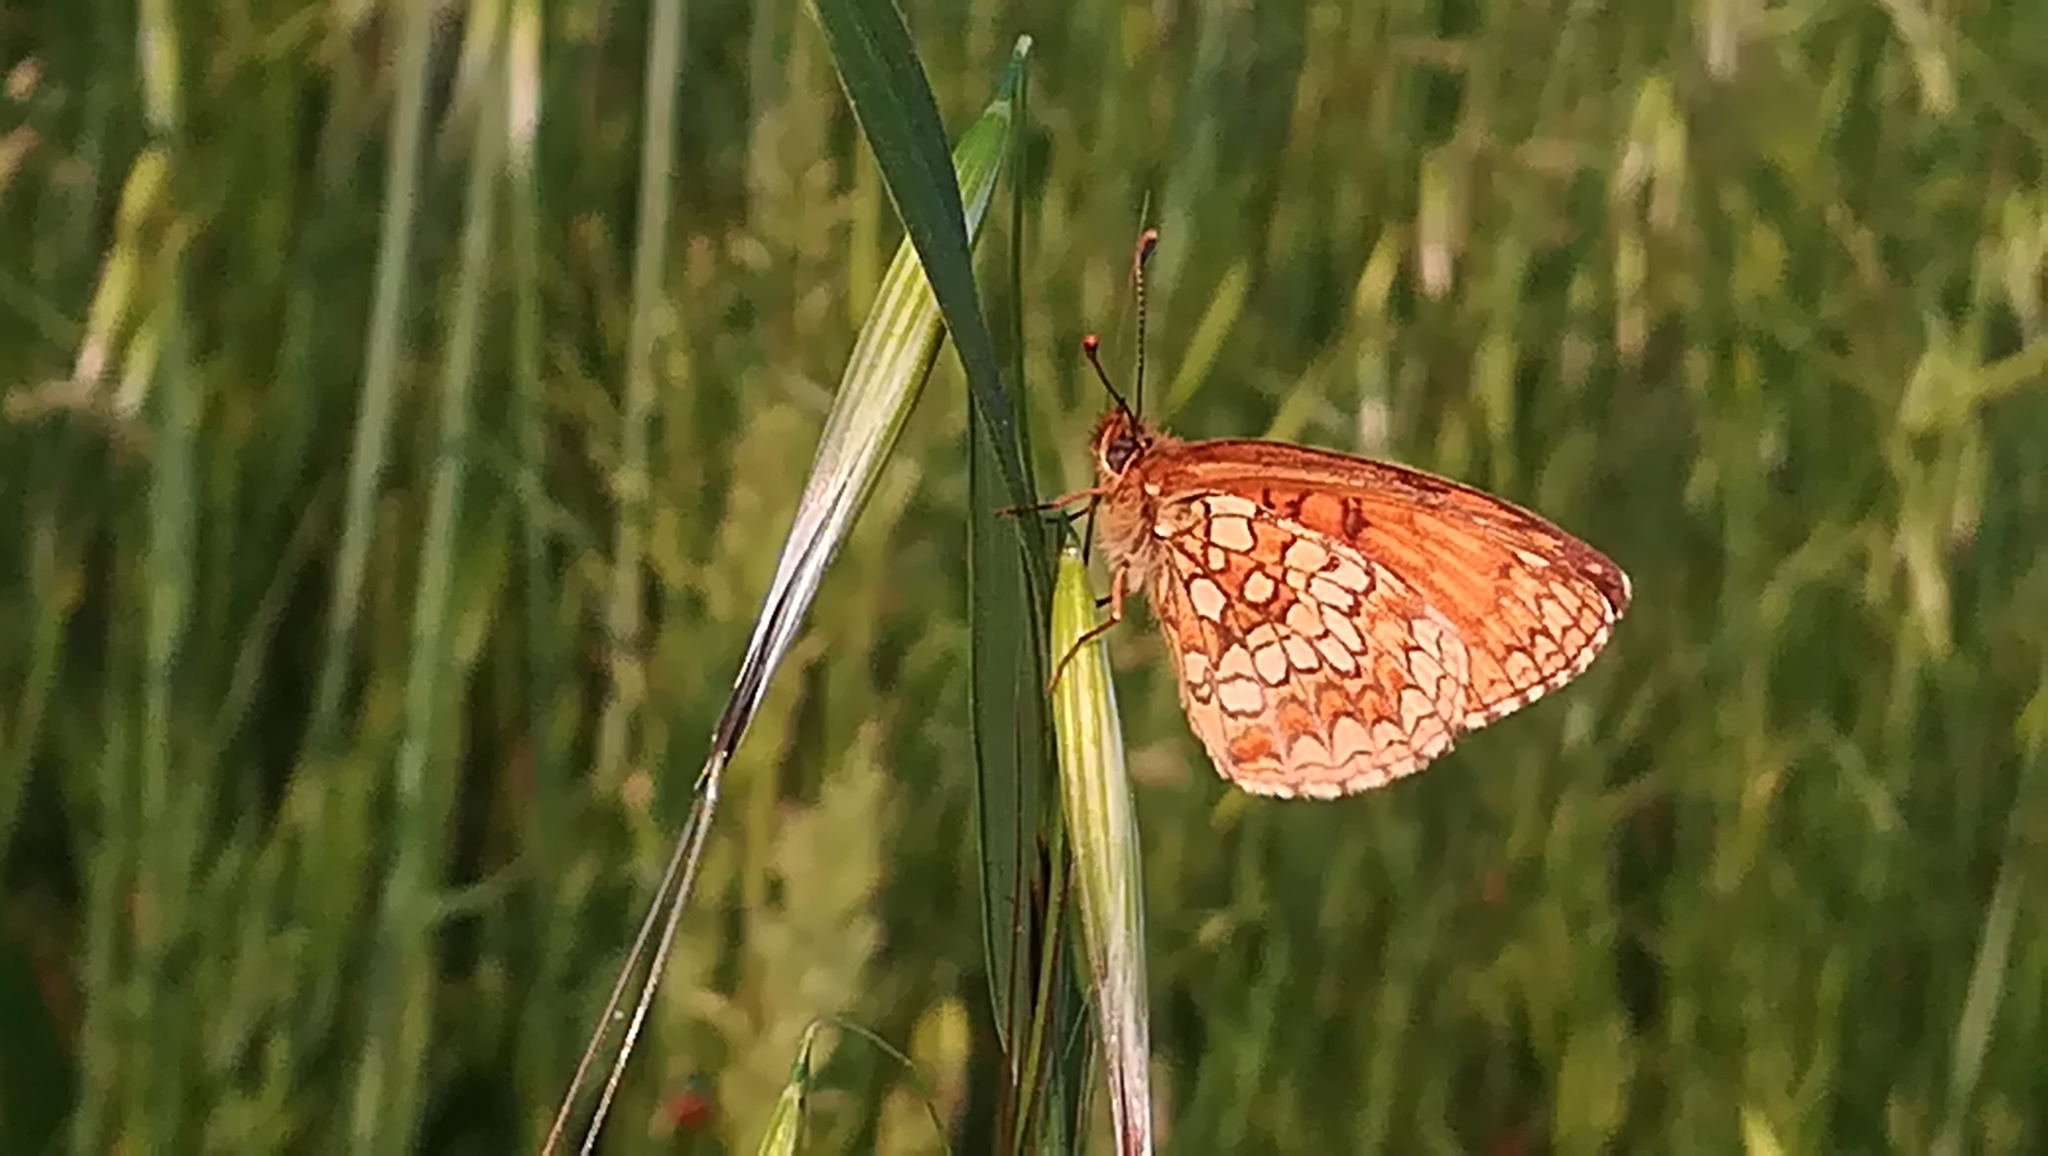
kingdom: Animalia
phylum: Arthropoda
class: Insecta
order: Lepidoptera
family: Nymphalidae
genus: Mellicta
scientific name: Mellicta athalia
